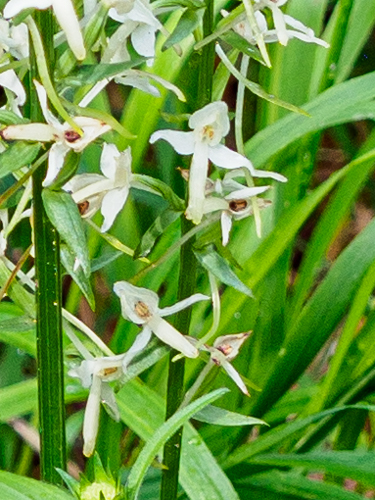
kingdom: Plantae
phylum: Tracheophyta
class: Liliopsida
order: Asparagales
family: Orchidaceae
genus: Platanthera
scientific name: Platanthera bifolia
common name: Lesser butterfly-orchid
